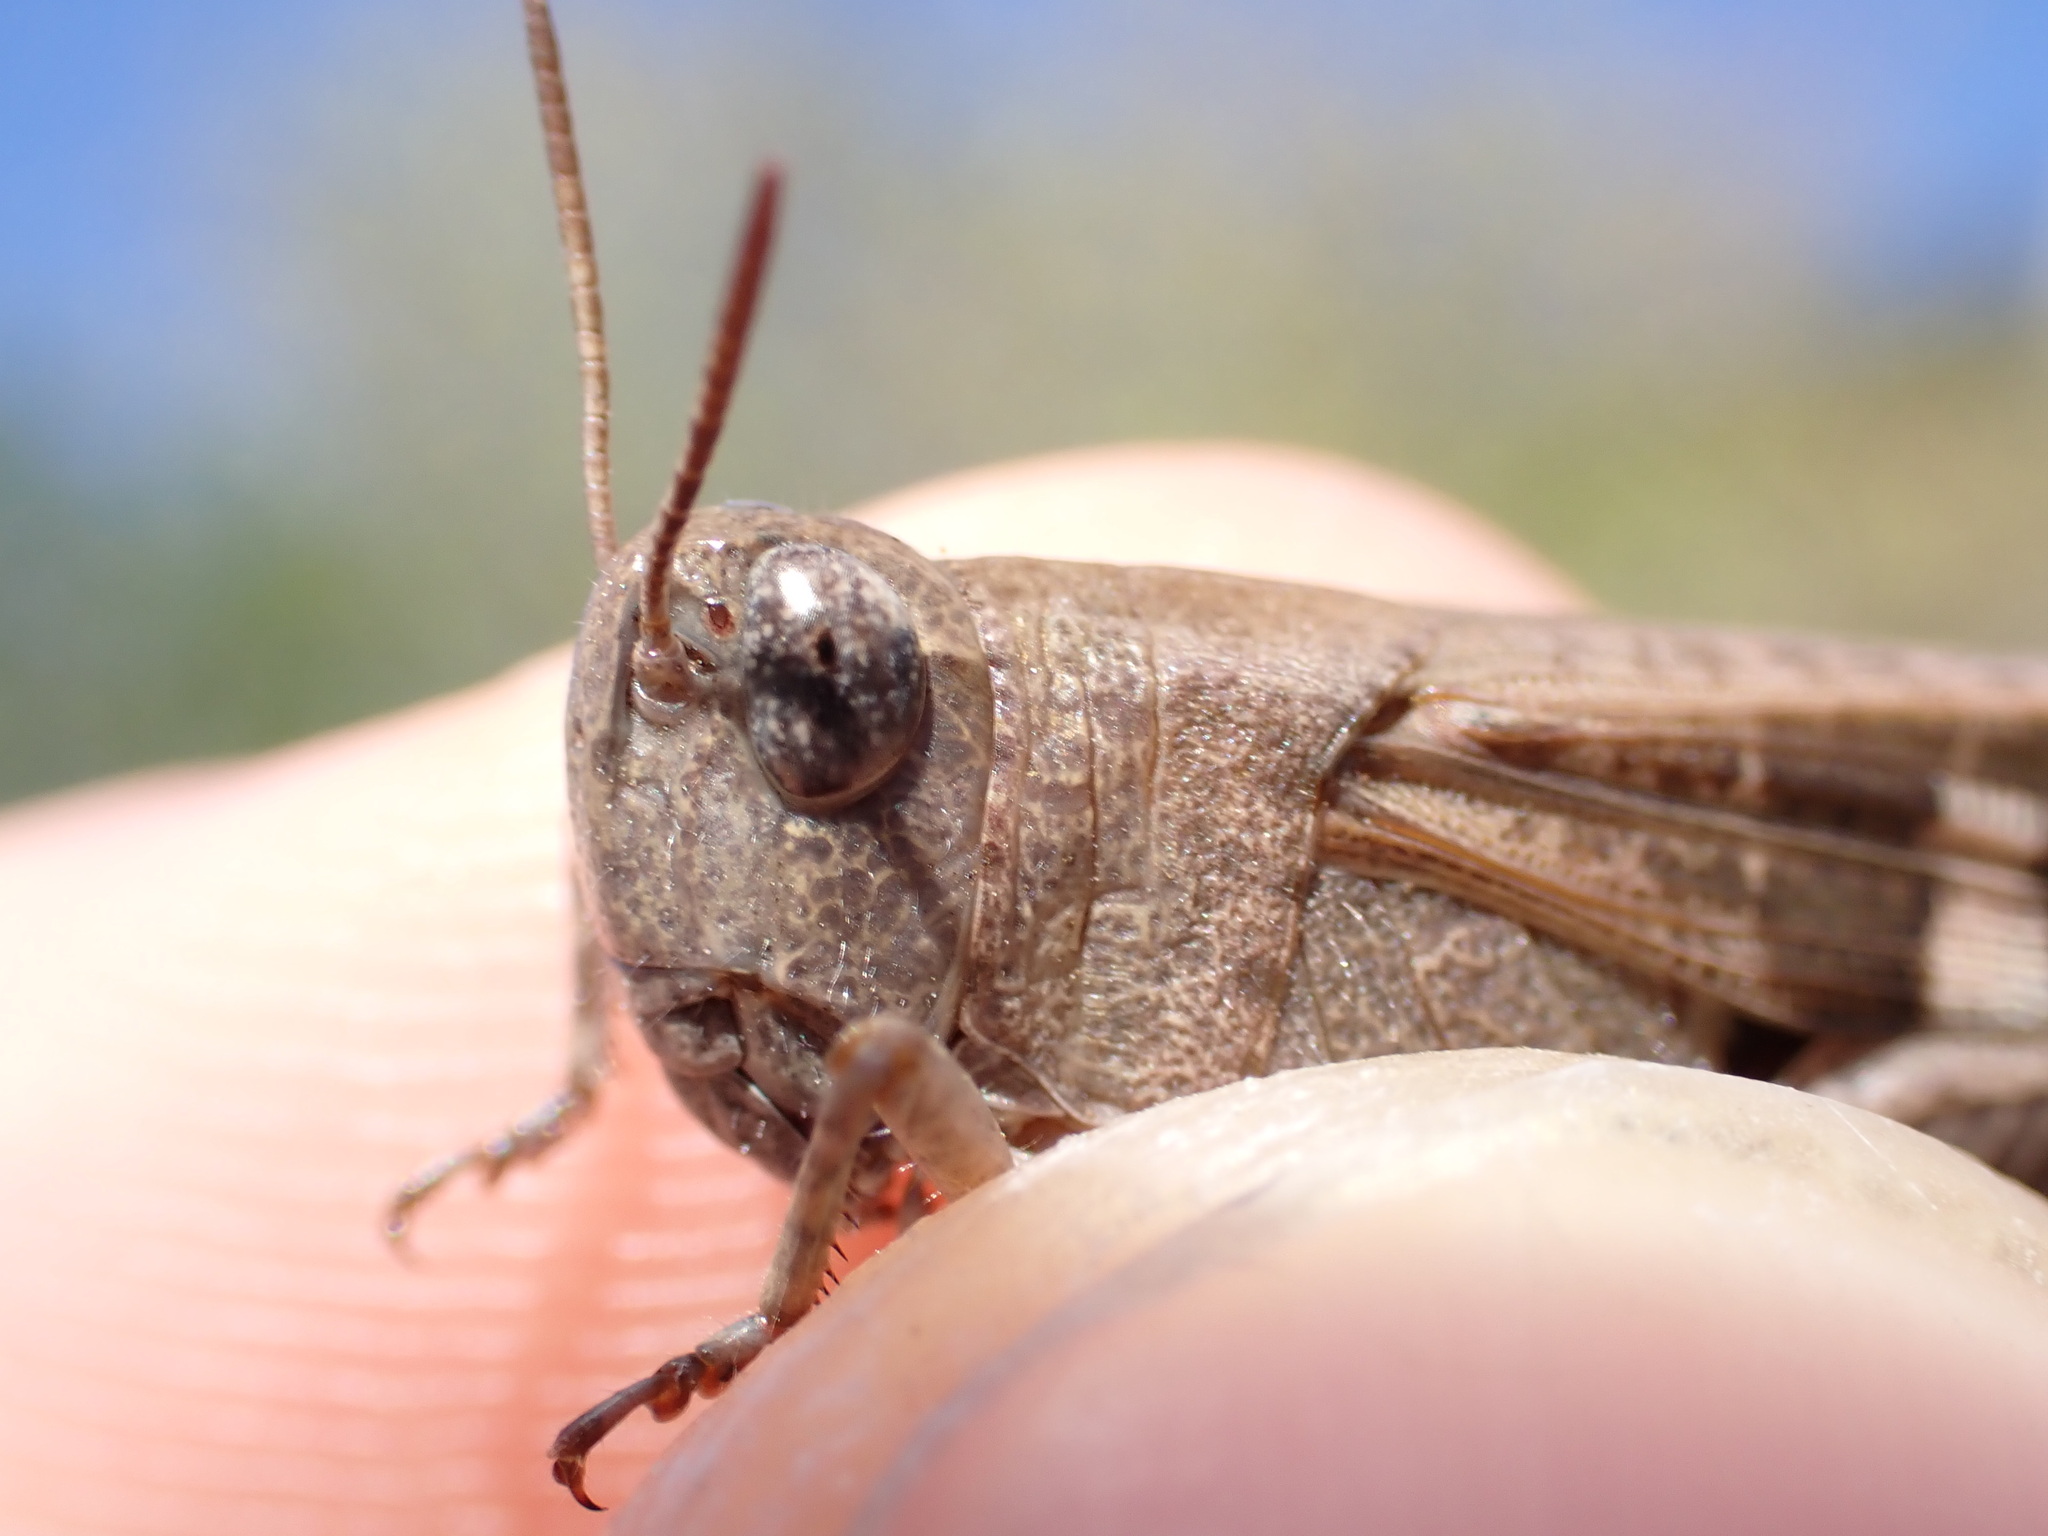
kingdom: Animalia
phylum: Arthropoda
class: Insecta
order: Orthoptera
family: Acrididae
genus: Aiolopus
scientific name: Aiolopus strepens
